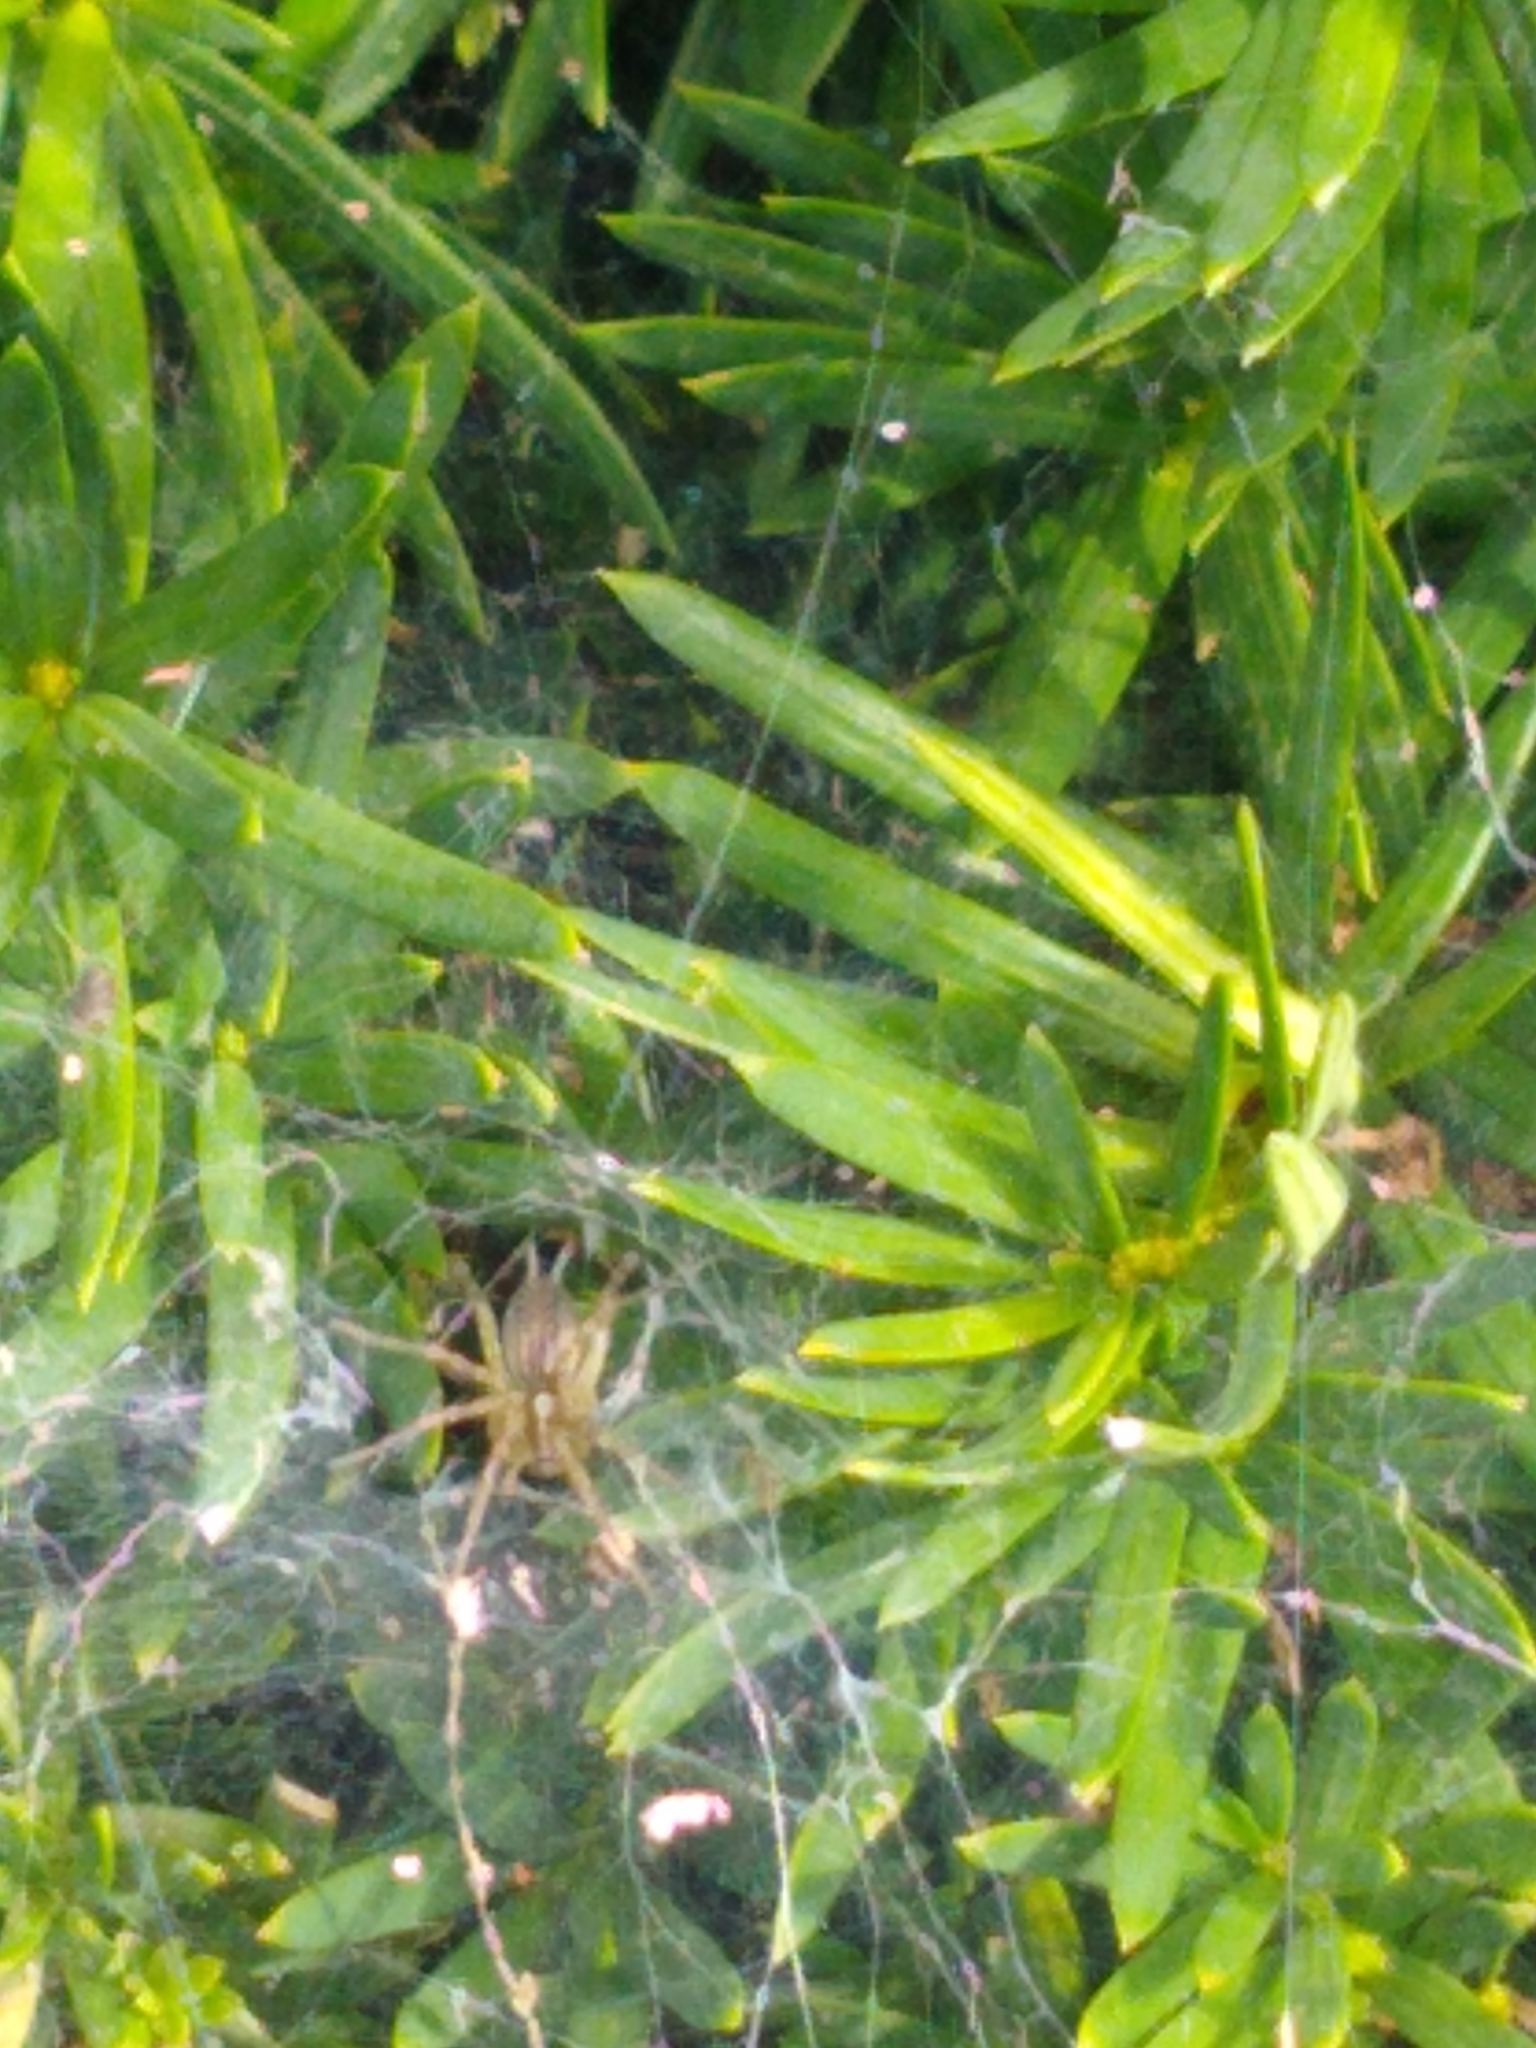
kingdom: Animalia
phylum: Arthropoda
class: Arachnida
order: Araneae
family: Agelenidae
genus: Agelenopsis
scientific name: Agelenopsis
